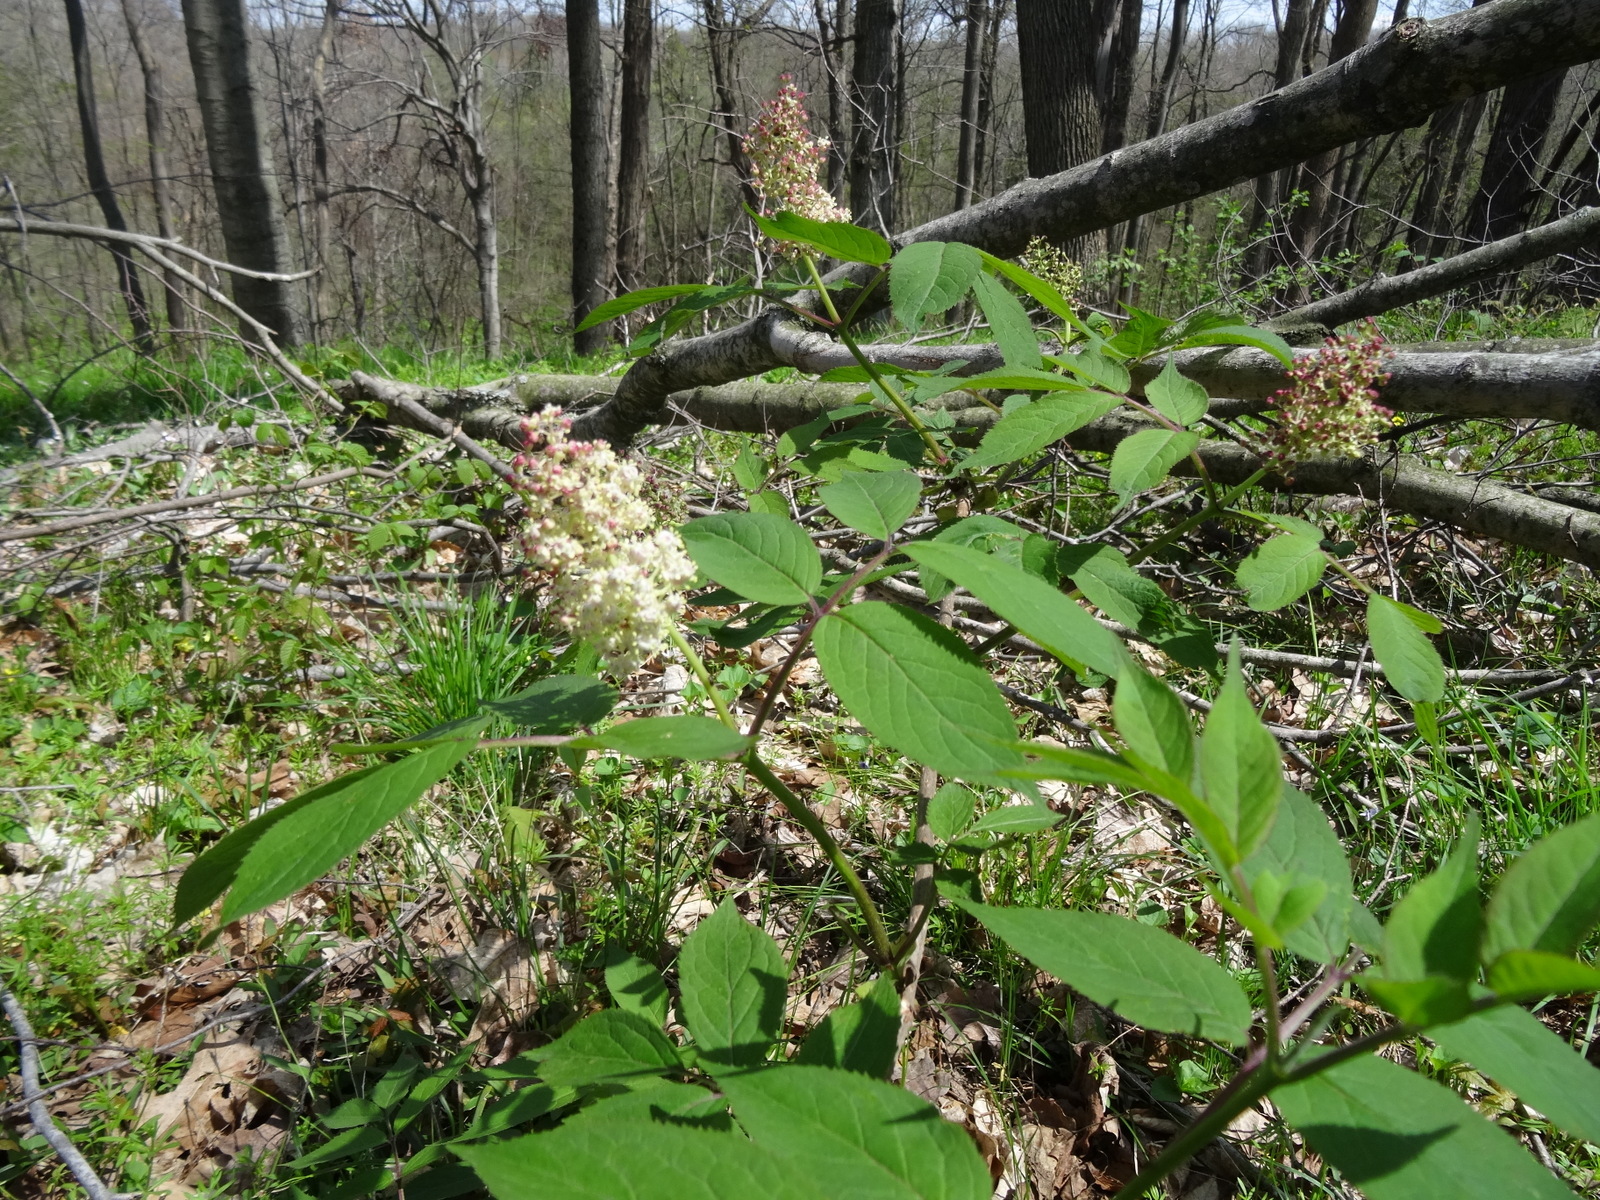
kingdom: Plantae
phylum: Tracheophyta
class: Magnoliopsida
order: Dipsacales
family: Viburnaceae
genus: Sambucus
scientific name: Sambucus racemosa
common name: Red-berried elder
